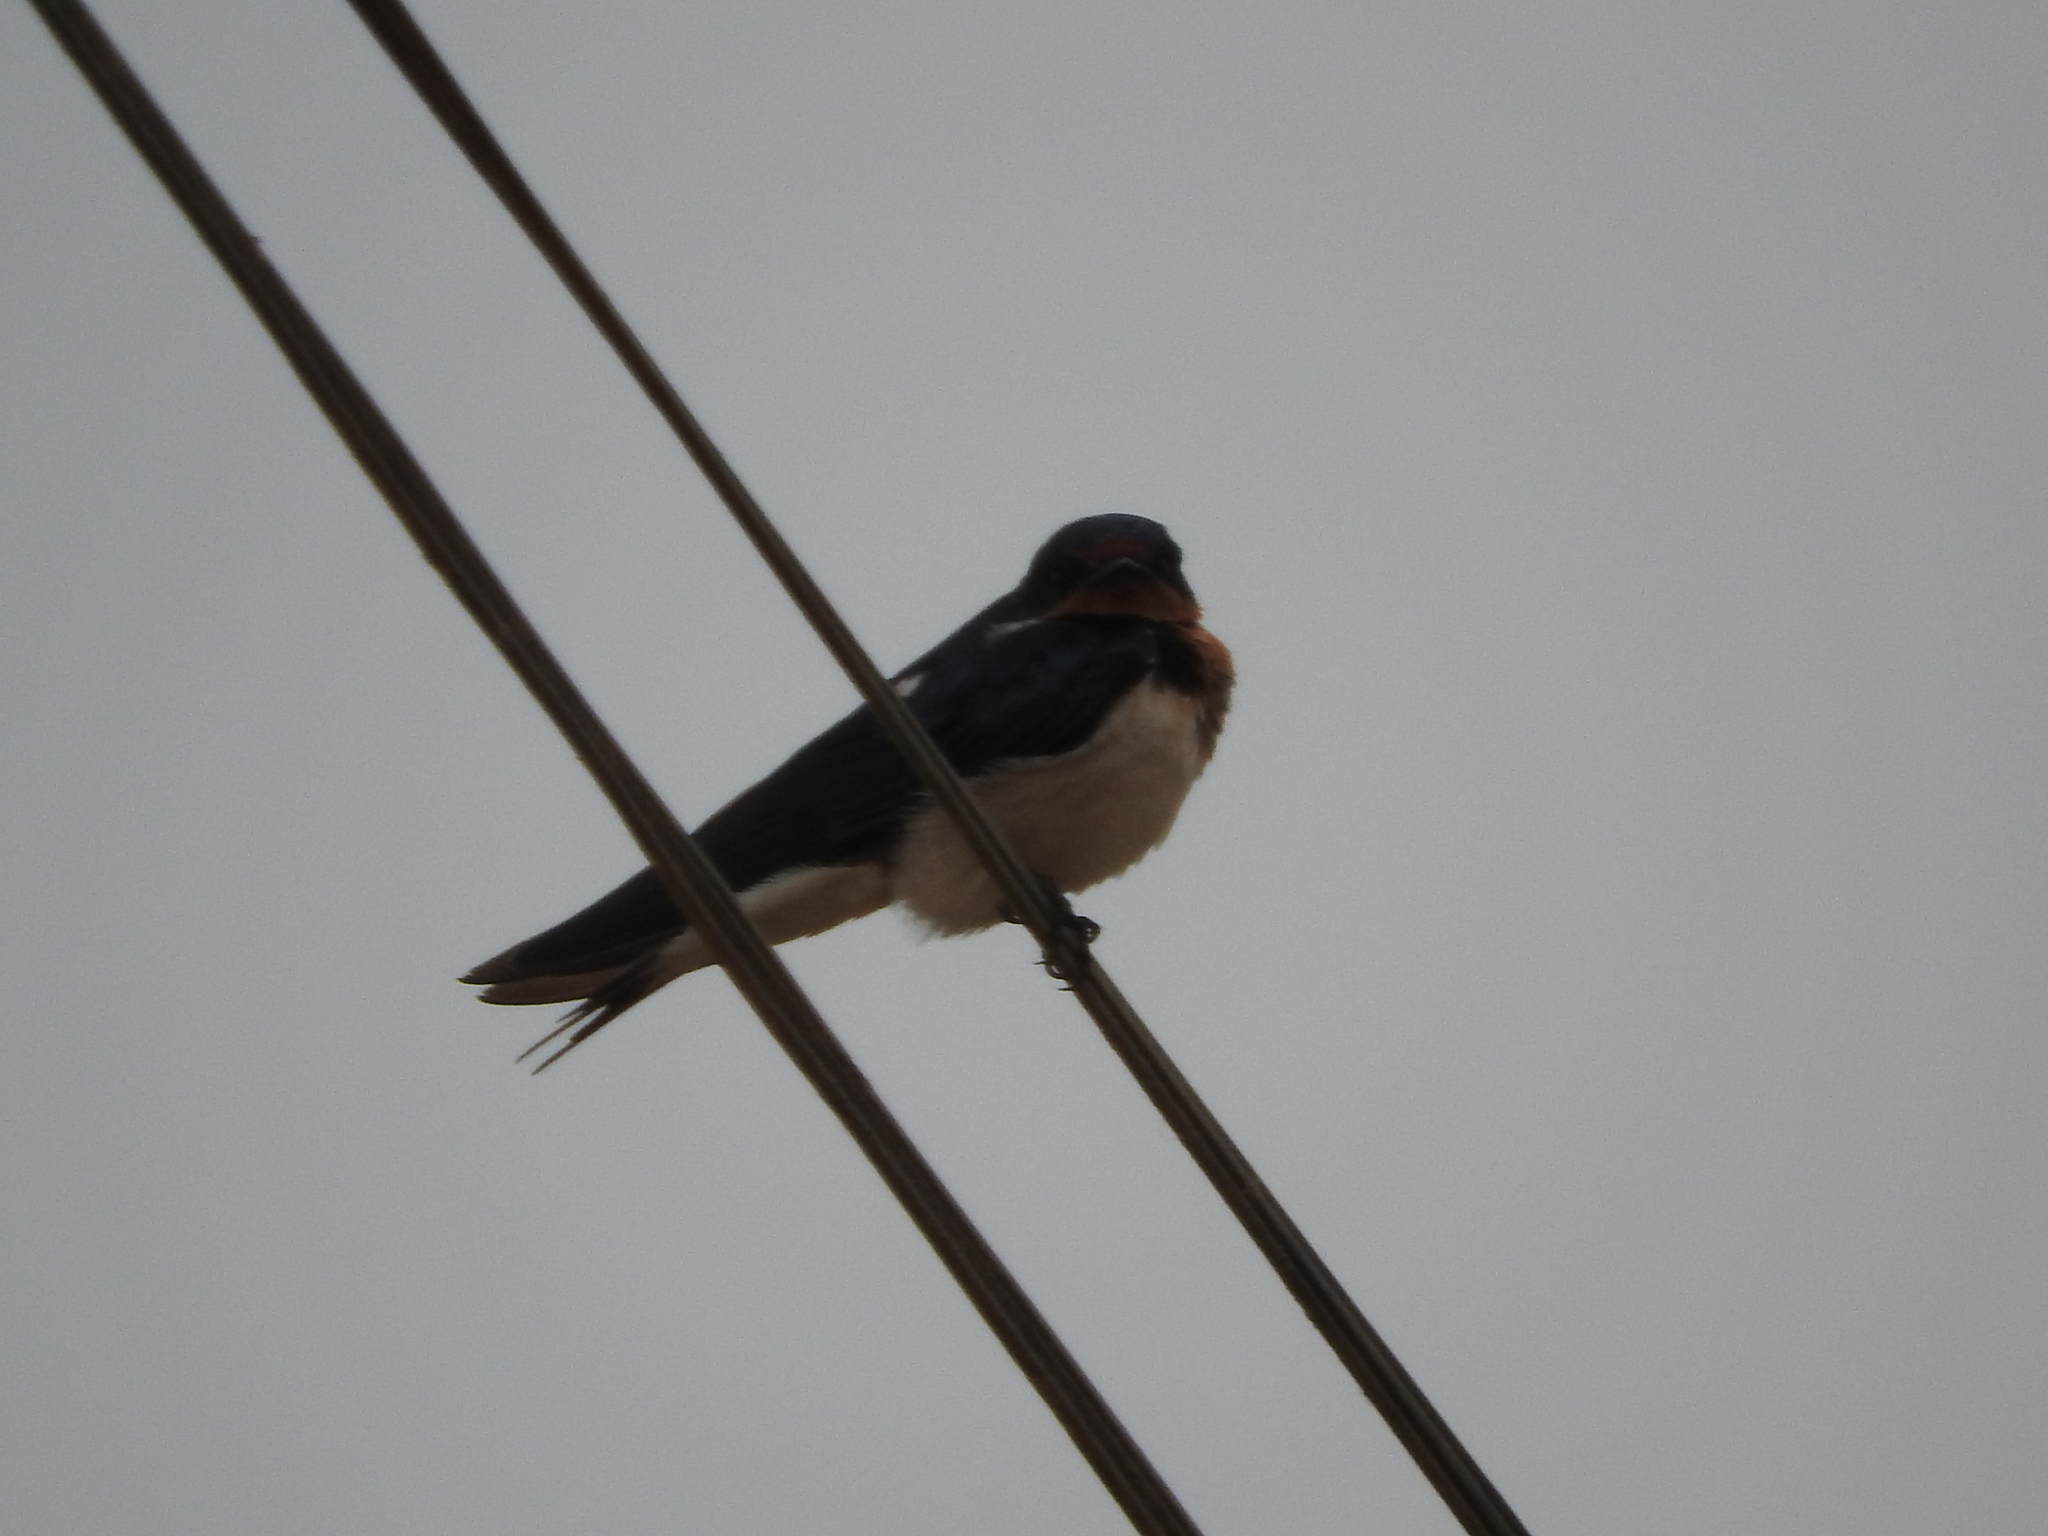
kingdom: Animalia
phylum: Chordata
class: Aves
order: Passeriformes
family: Hirundinidae
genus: Hirundo
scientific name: Hirundo rustica
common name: Barn swallow
